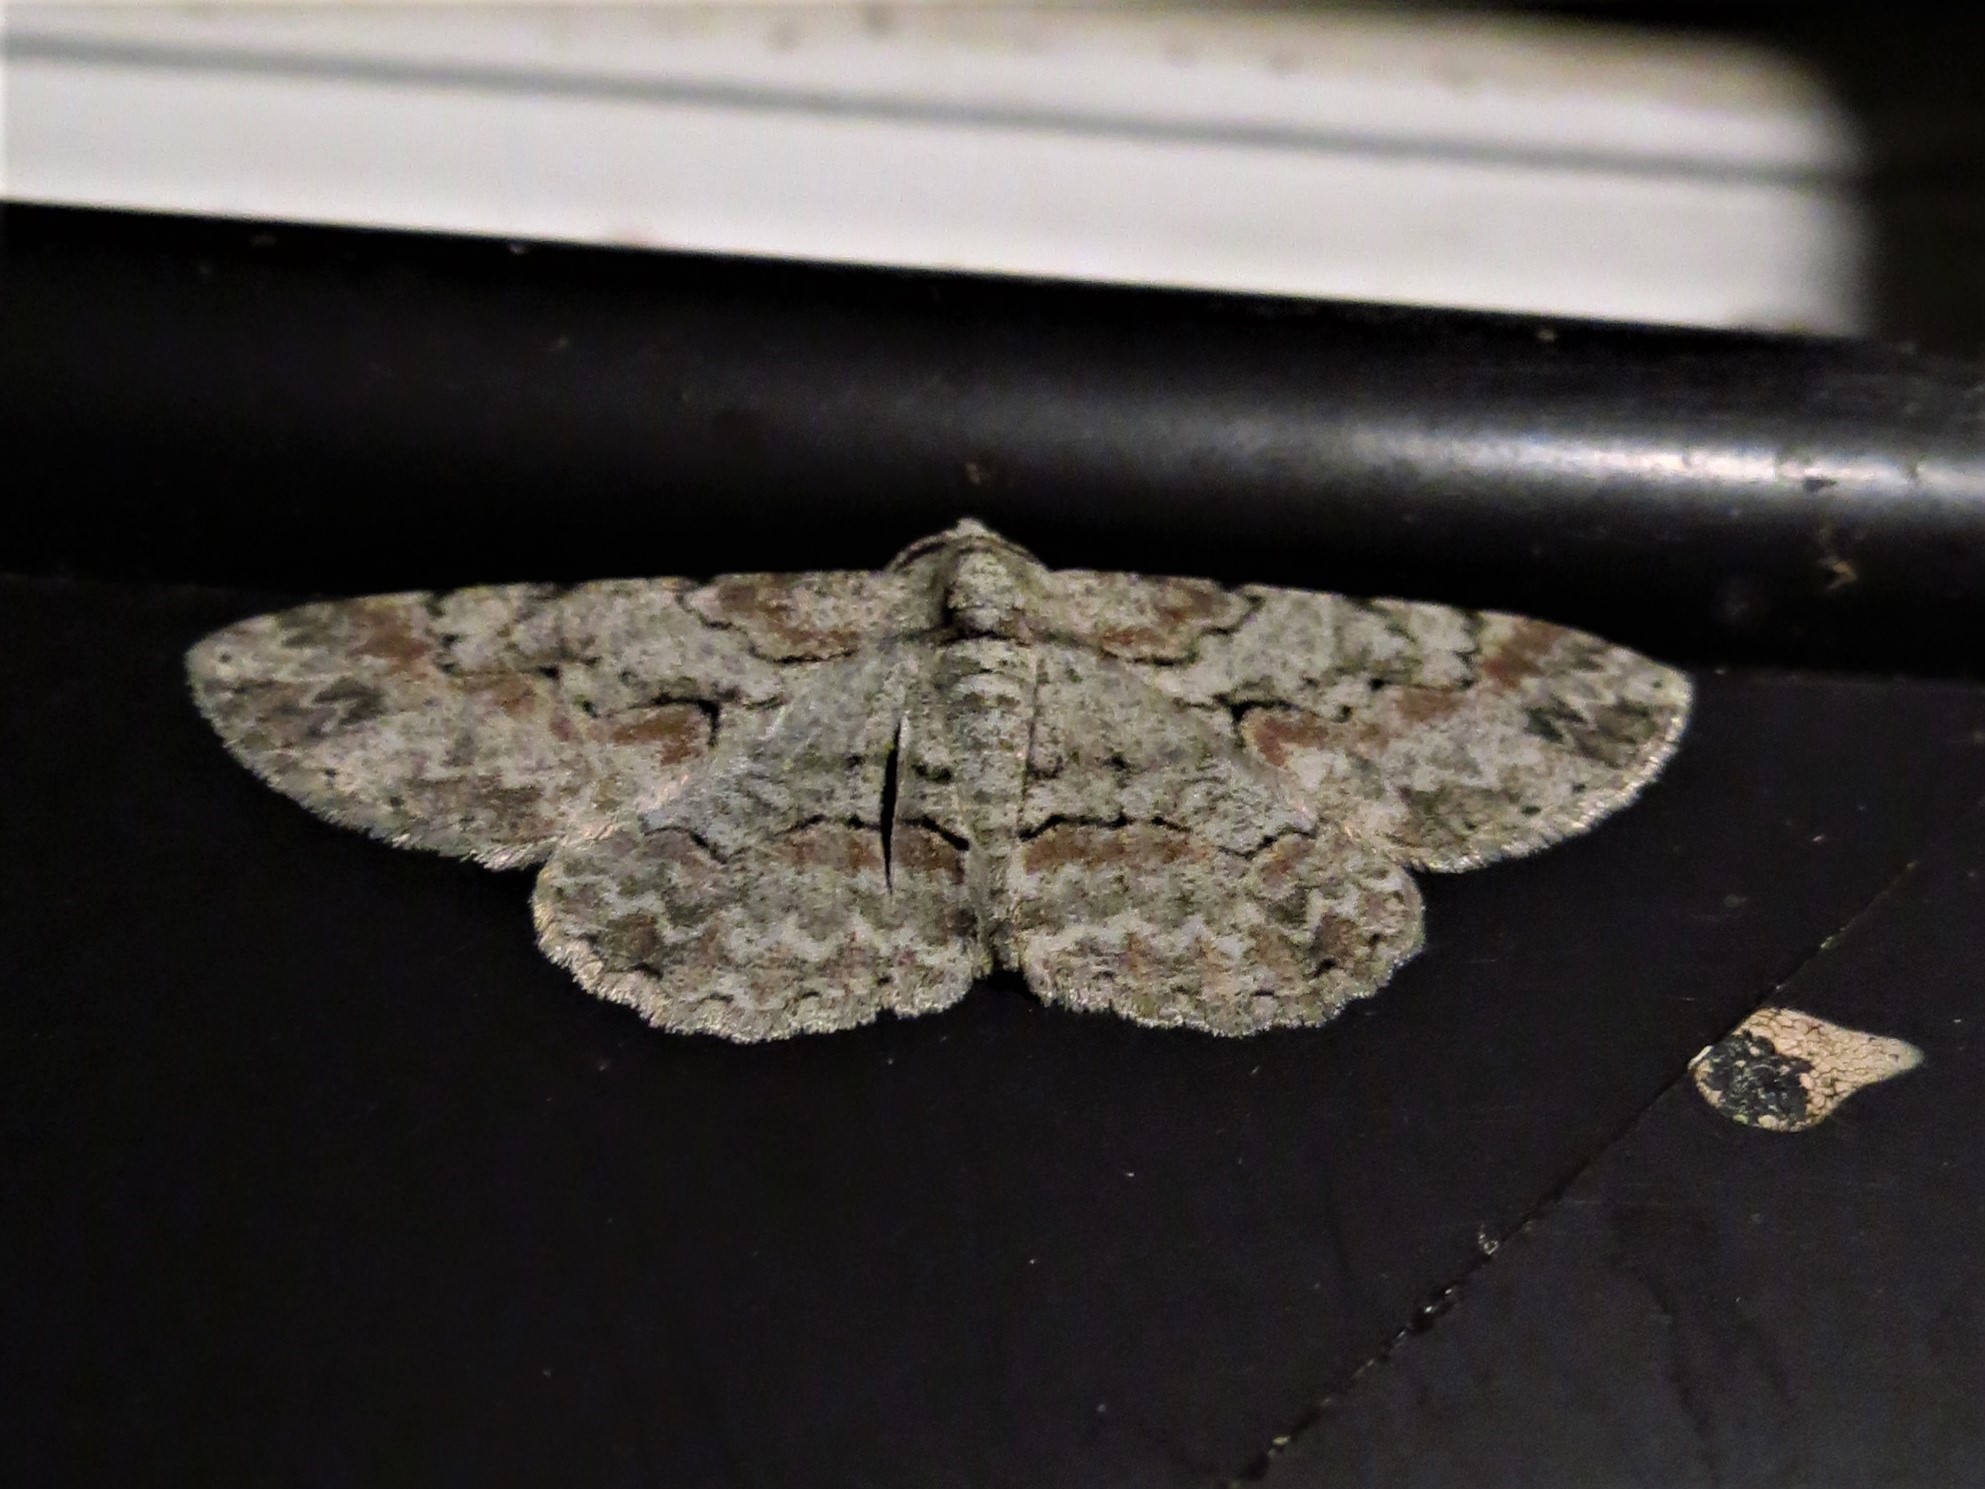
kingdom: Animalia
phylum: Arthropoda
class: Insecta
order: Lepidoptera
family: Geometridae
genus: Iridopsis
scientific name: Iridopsis defectaria
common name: Brown-shaded gray
